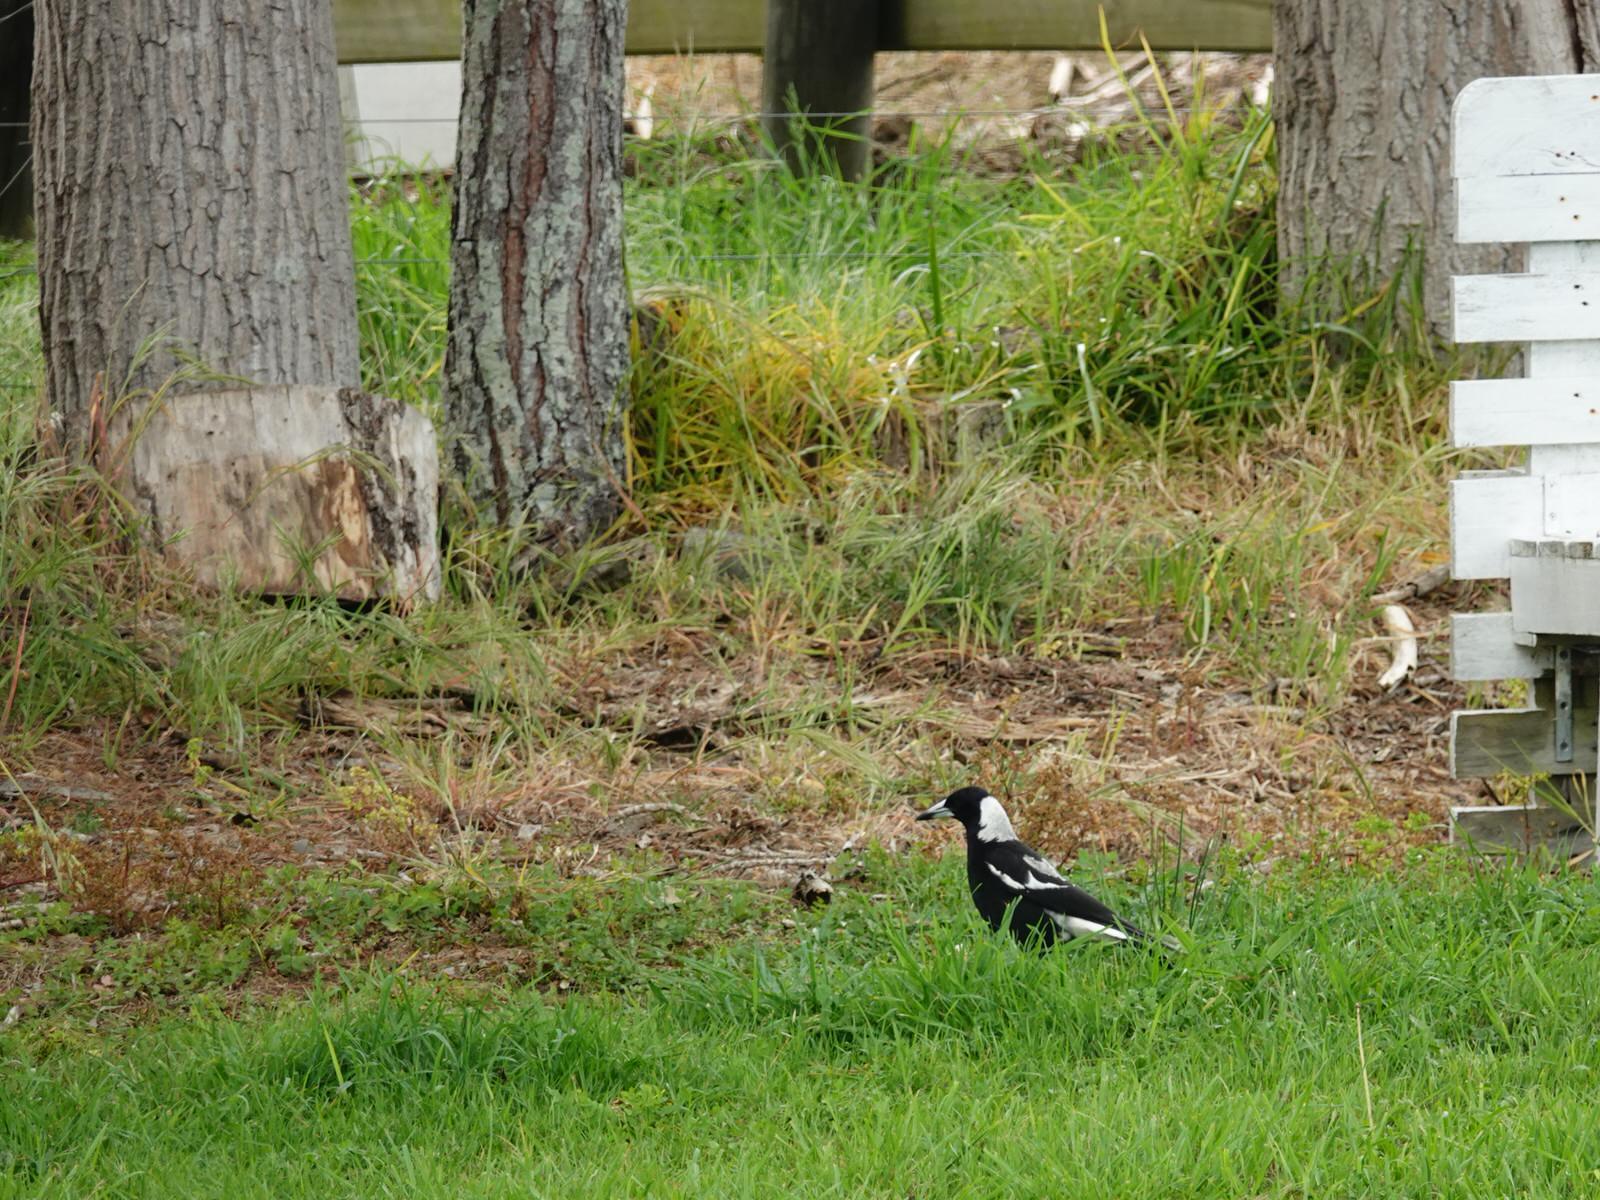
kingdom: Animalia
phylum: Chordata
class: Aves
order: Passeriformes
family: Cracticidae
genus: Gymnorhina
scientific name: Gymnorhina tibicen
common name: Australian magpie
